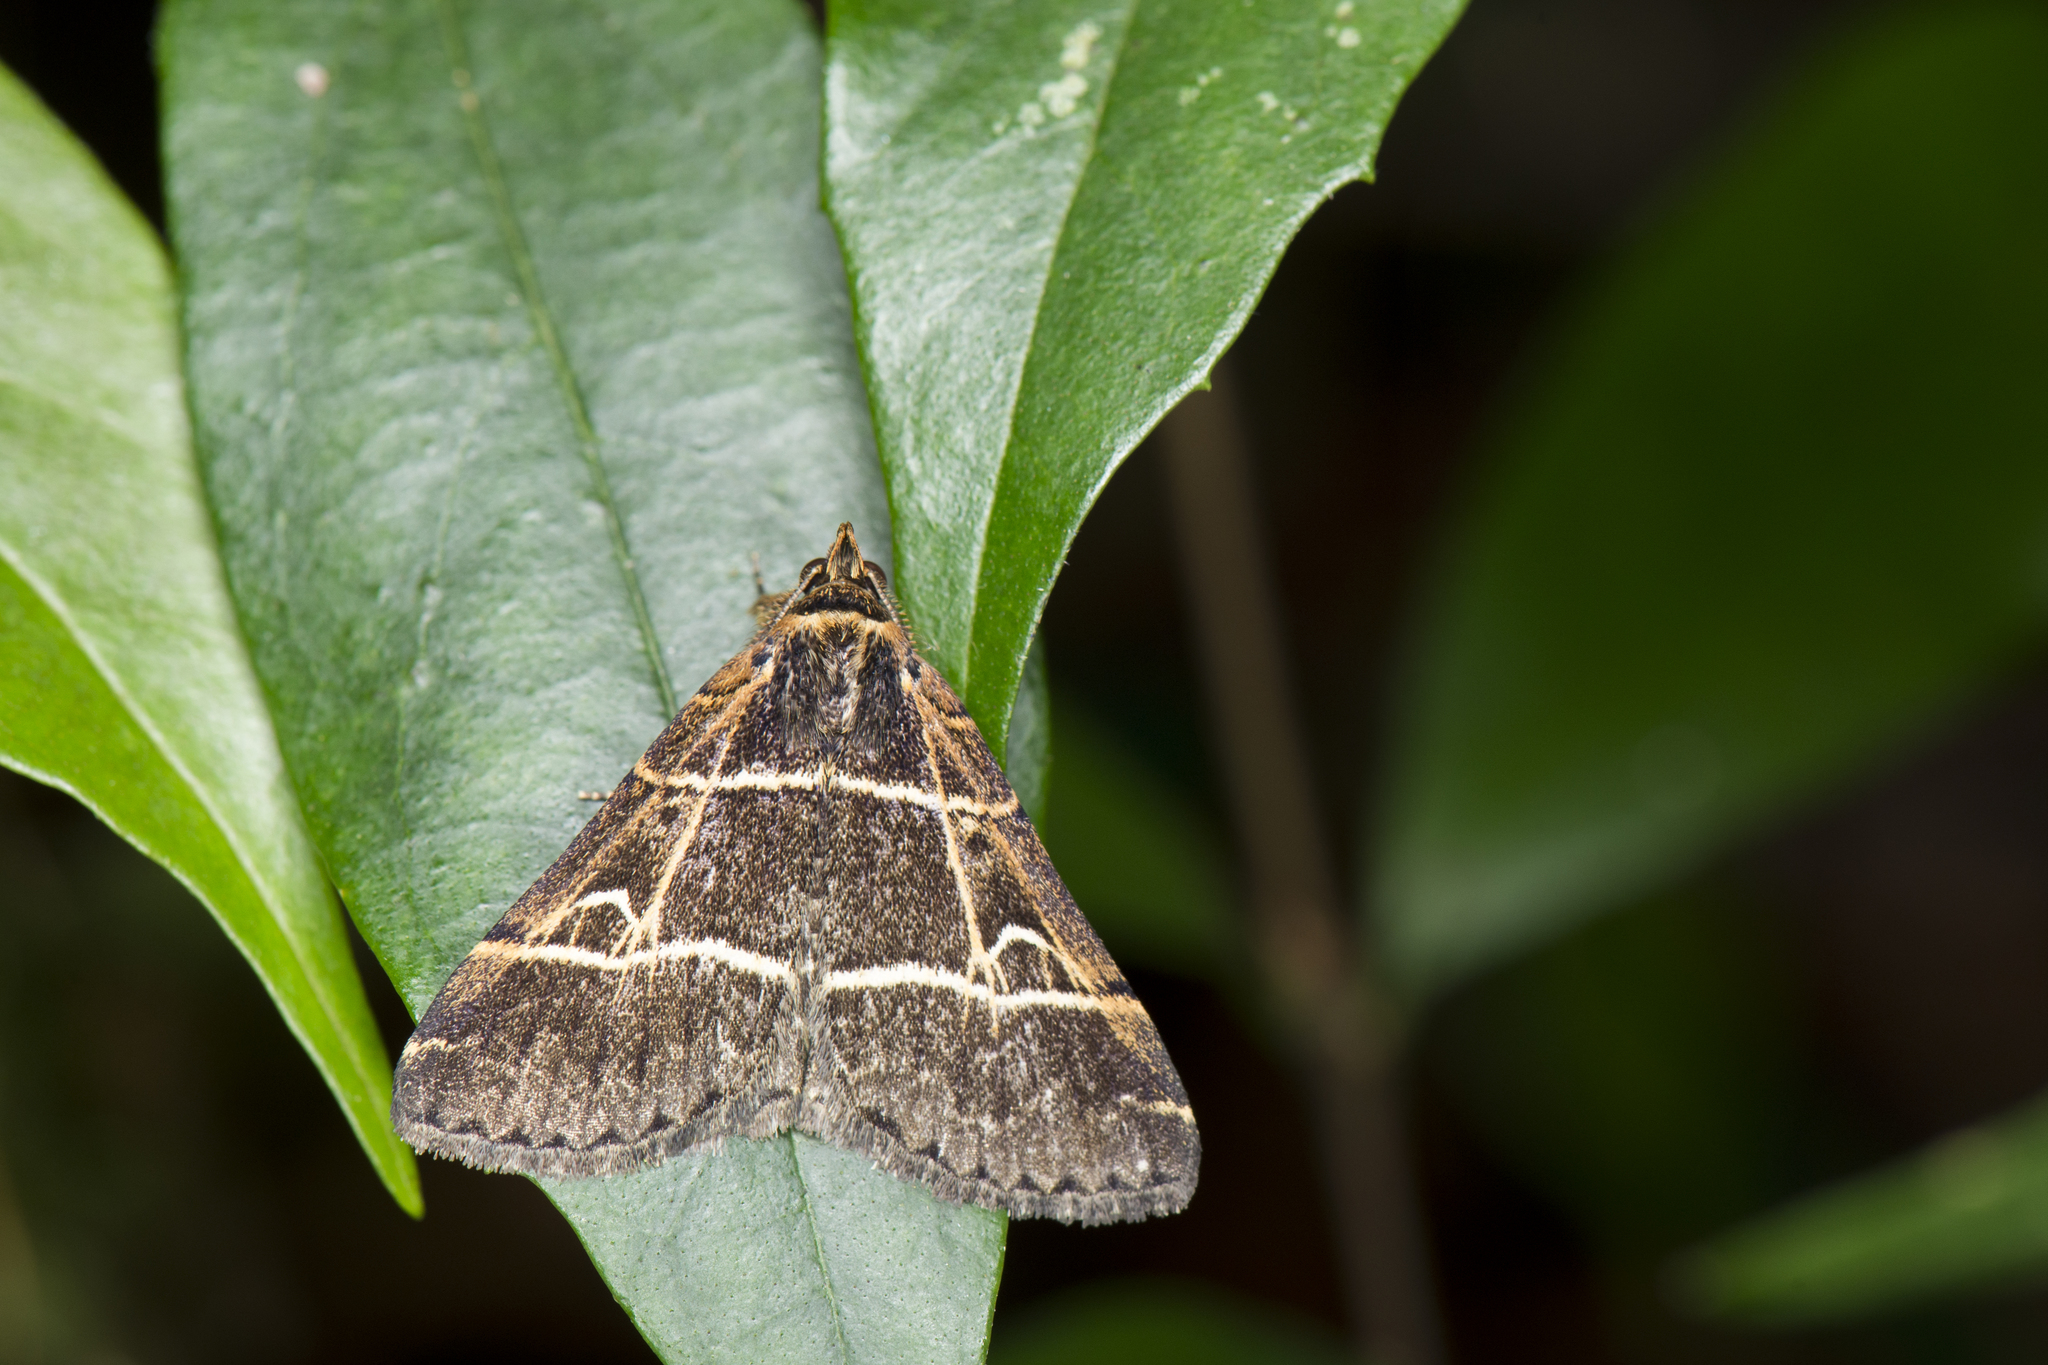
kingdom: Animalia
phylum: Arthropoda
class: Insecta
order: Lepidoptera
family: Erebidae
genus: Bertula
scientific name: Bertula bisectalis
